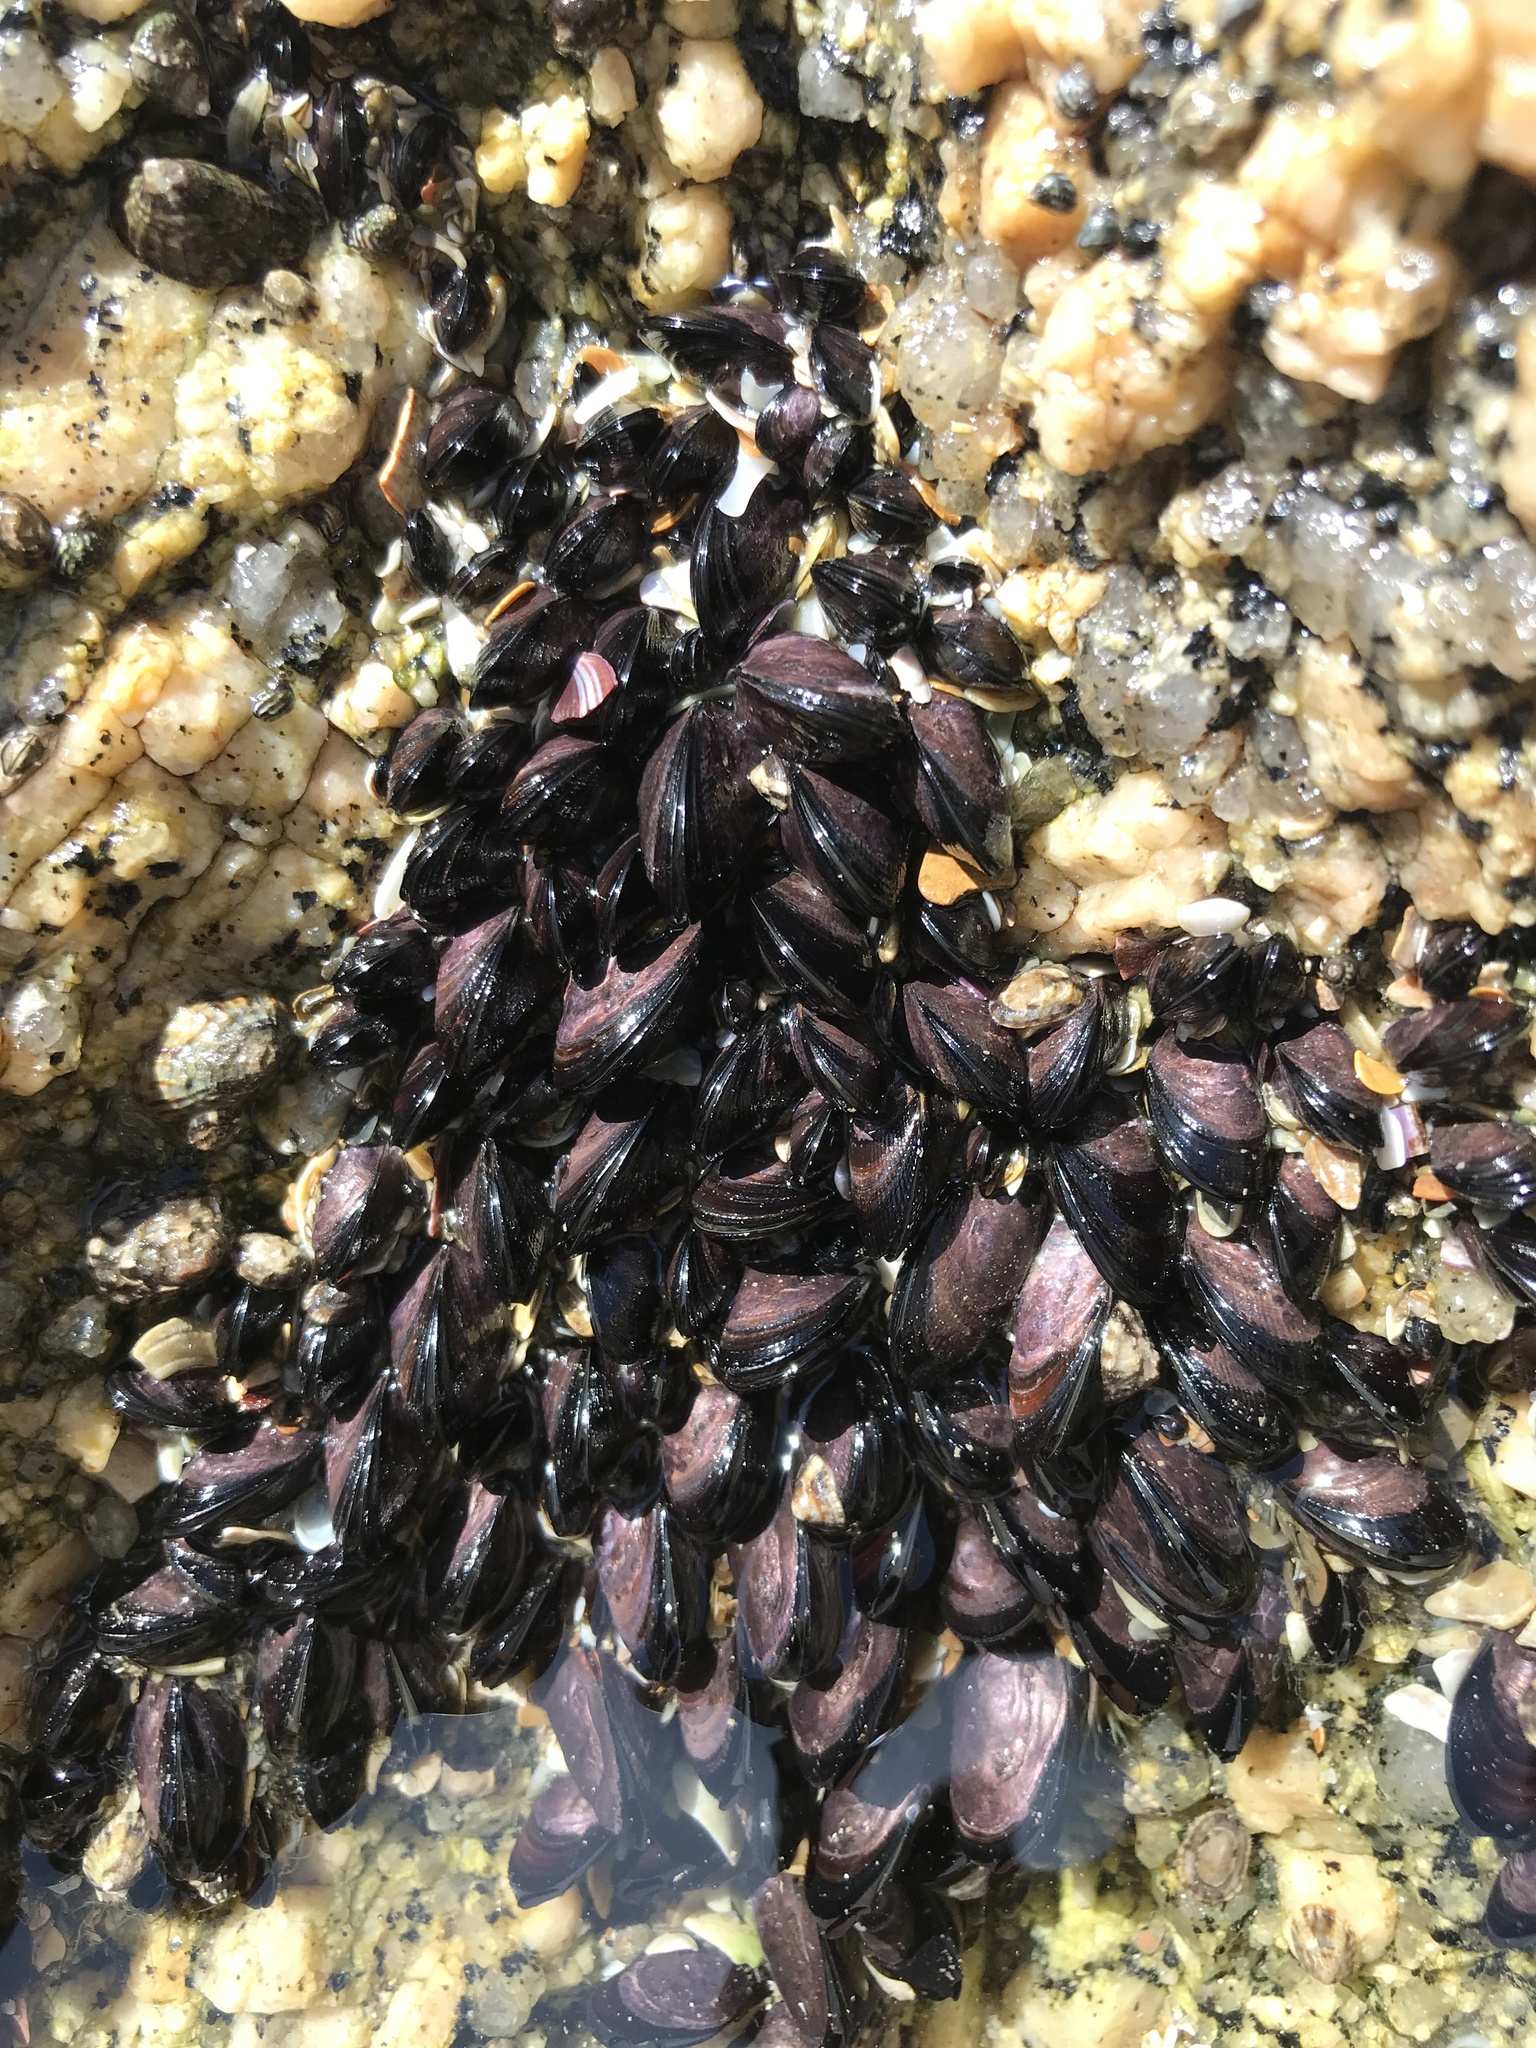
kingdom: Animalia
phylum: Mollusca
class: Bivalvia
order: Mytilida
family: Mytilidae
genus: Brachidontes
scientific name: Brachidontes rodriguezii
